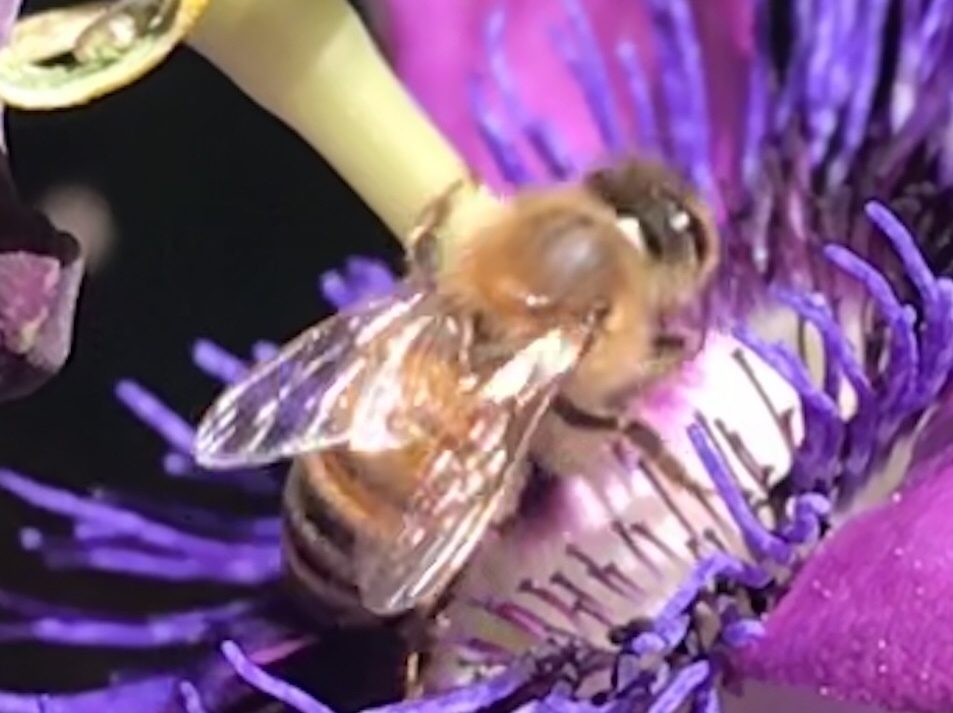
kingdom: Animalia
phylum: Arthropoda
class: Insecta
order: Hymenoptera
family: Apidae
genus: Apis
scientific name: Apis mellifera
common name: Honey bee
